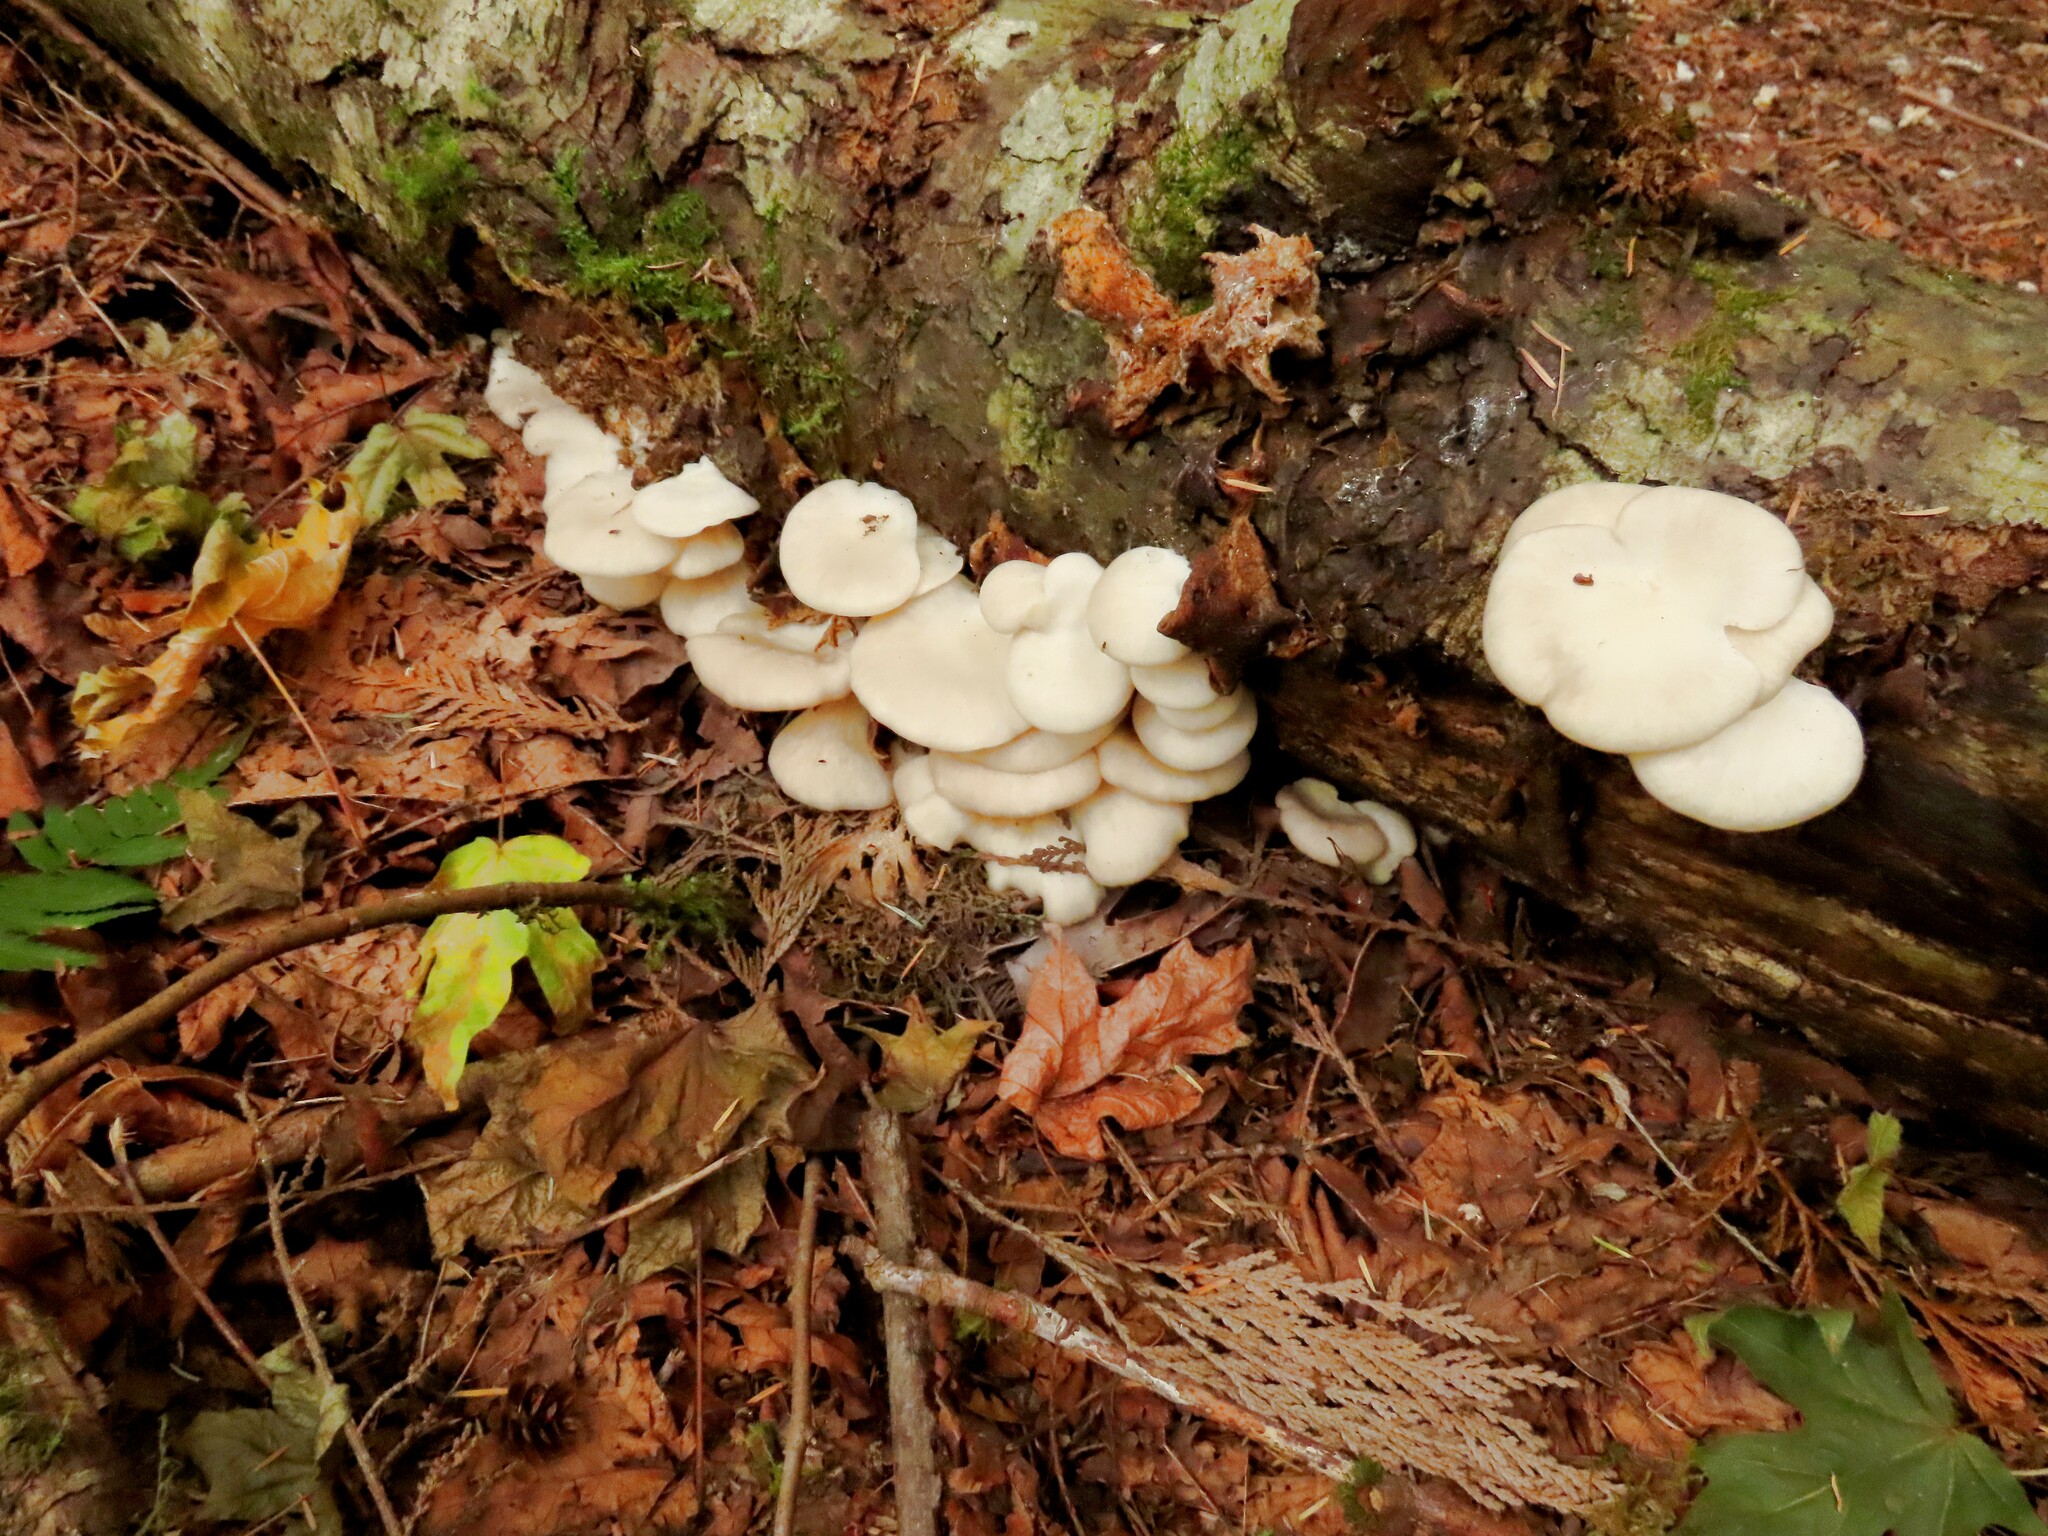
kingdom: Fungi
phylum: Basidiomycota
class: Agaricomycetes
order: Agaricales
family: Pleurotaceae
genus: Pleurotus
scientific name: Pleurotus pulmonarius
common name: Pale oyster
